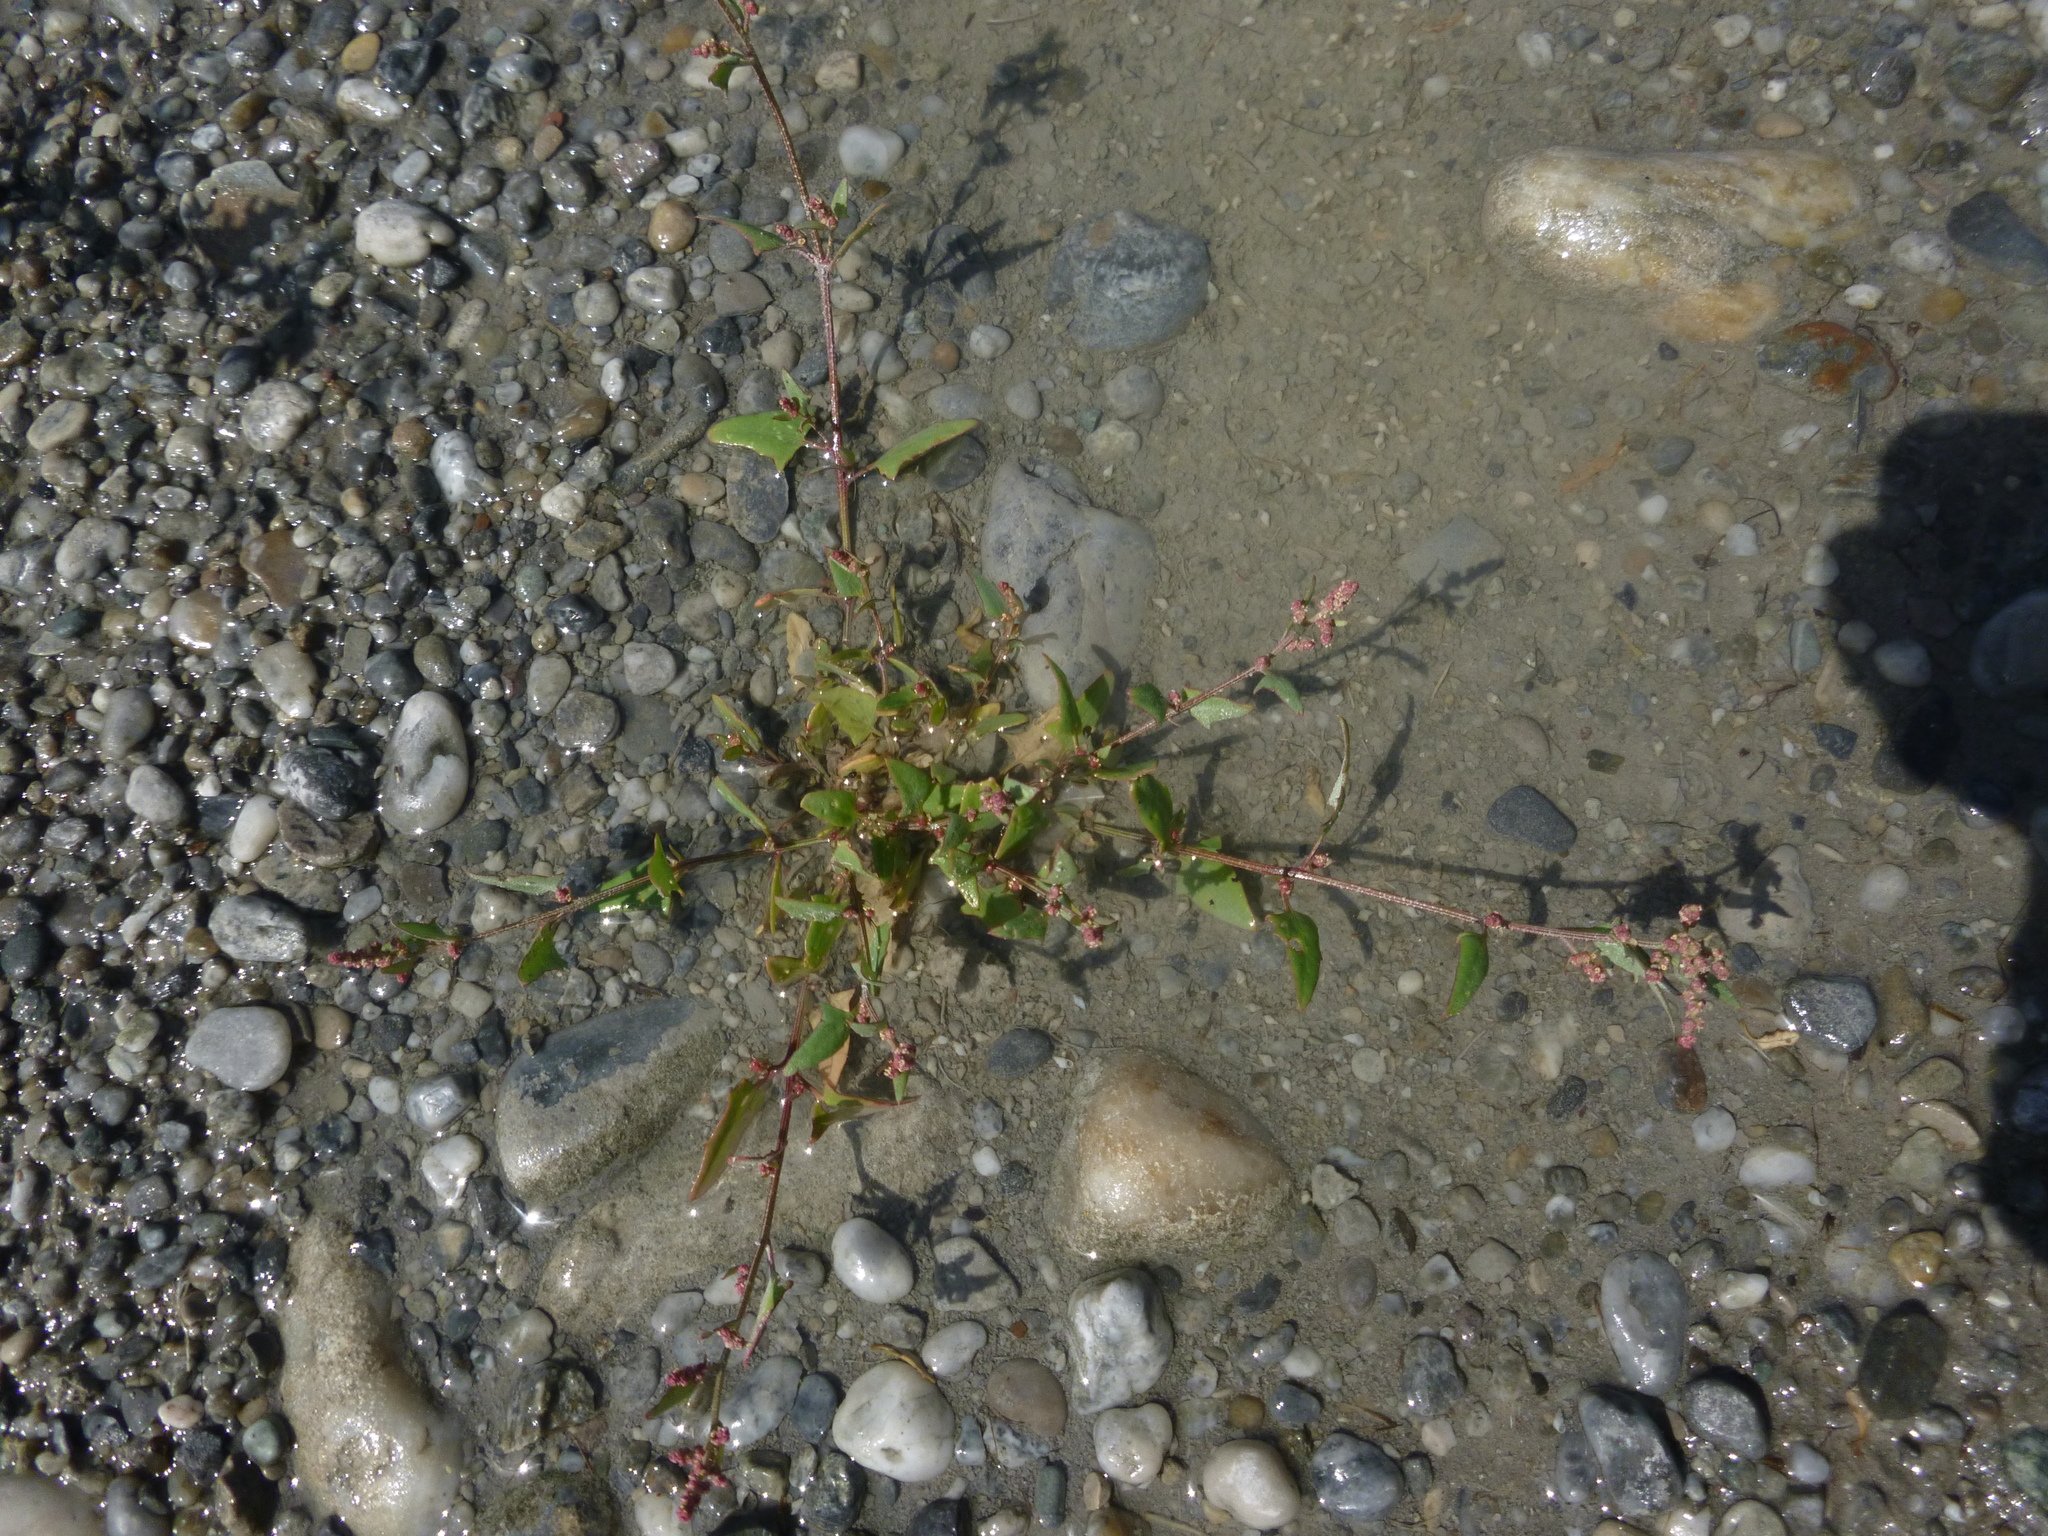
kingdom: Plantae
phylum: Tracheophyta
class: Magnoliopsida
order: Caryophyllales
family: Amaranthaceae
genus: Atriplex
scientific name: Atriplex prostrata
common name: Spear-leaved orache
